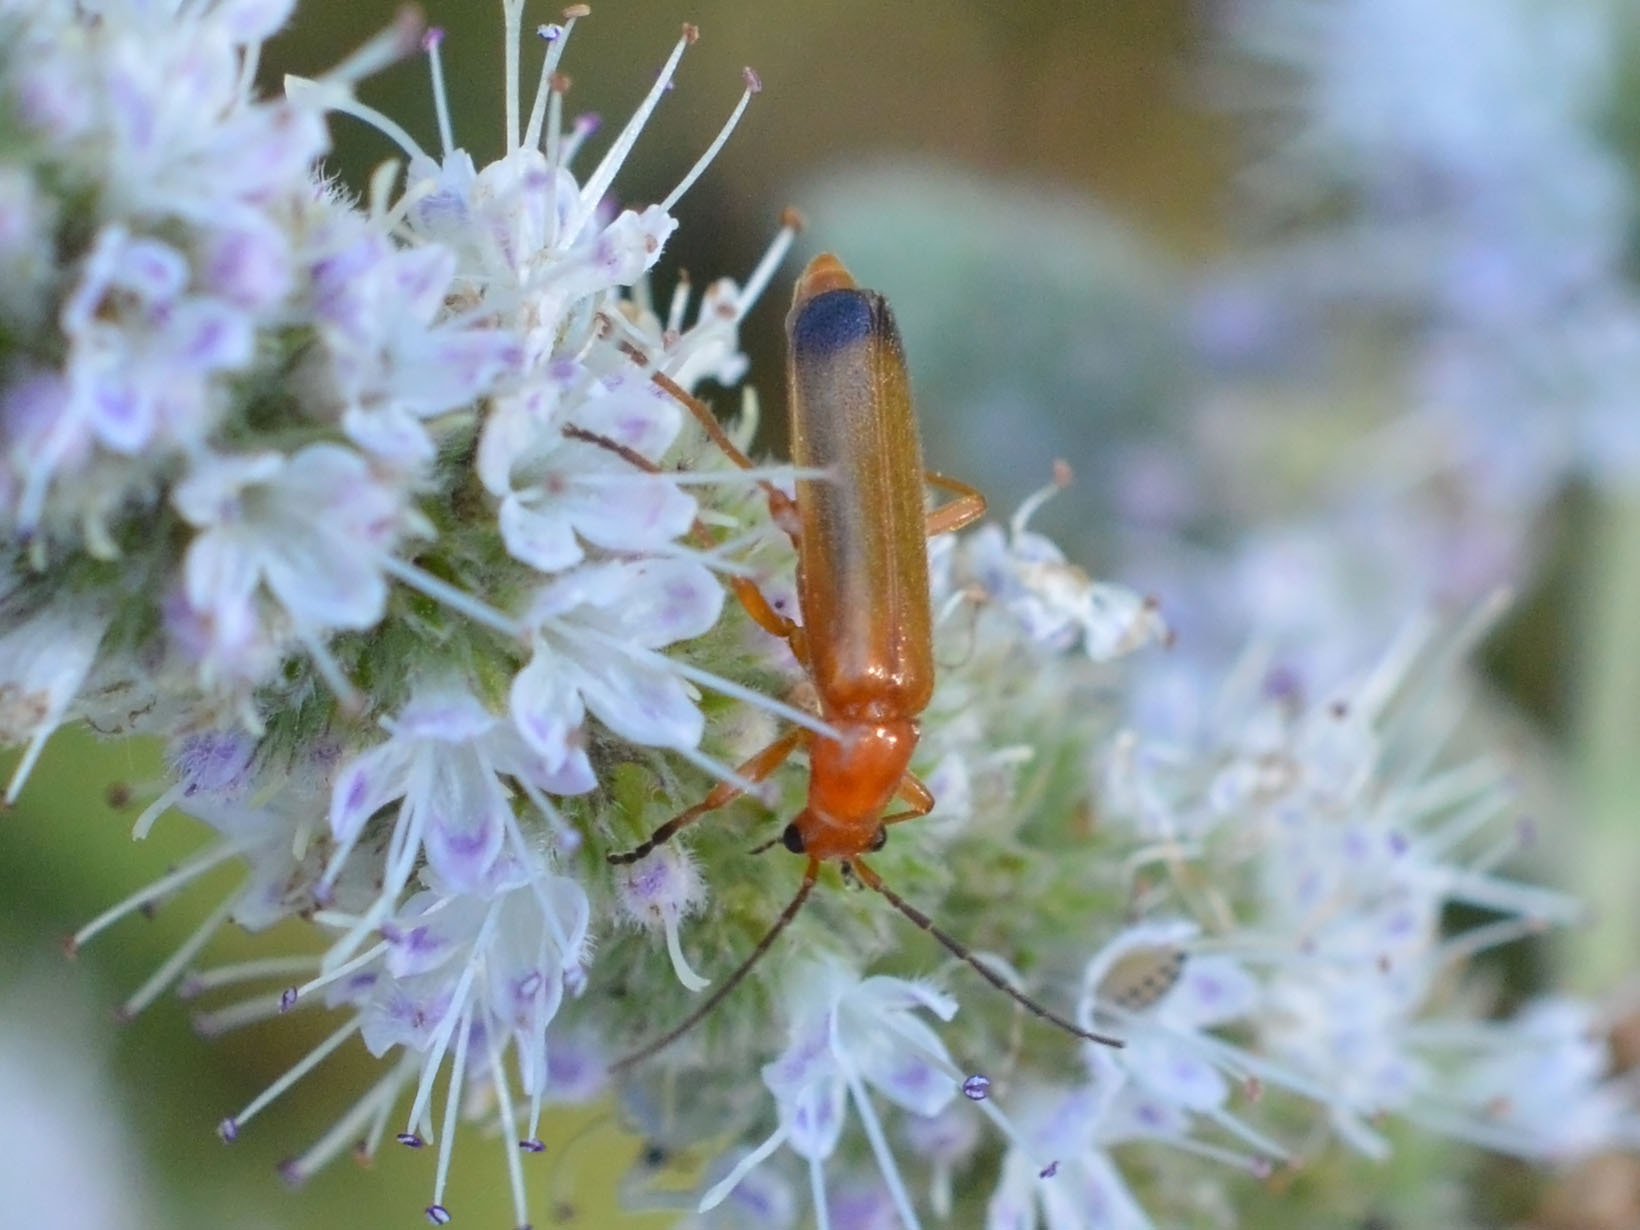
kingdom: Animalia
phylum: Arthropoda
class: Insecta
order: Coleoptera
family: Cantharidae
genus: Rhagonycha
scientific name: Rhagonycha fulva
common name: Common red soldier beetle
